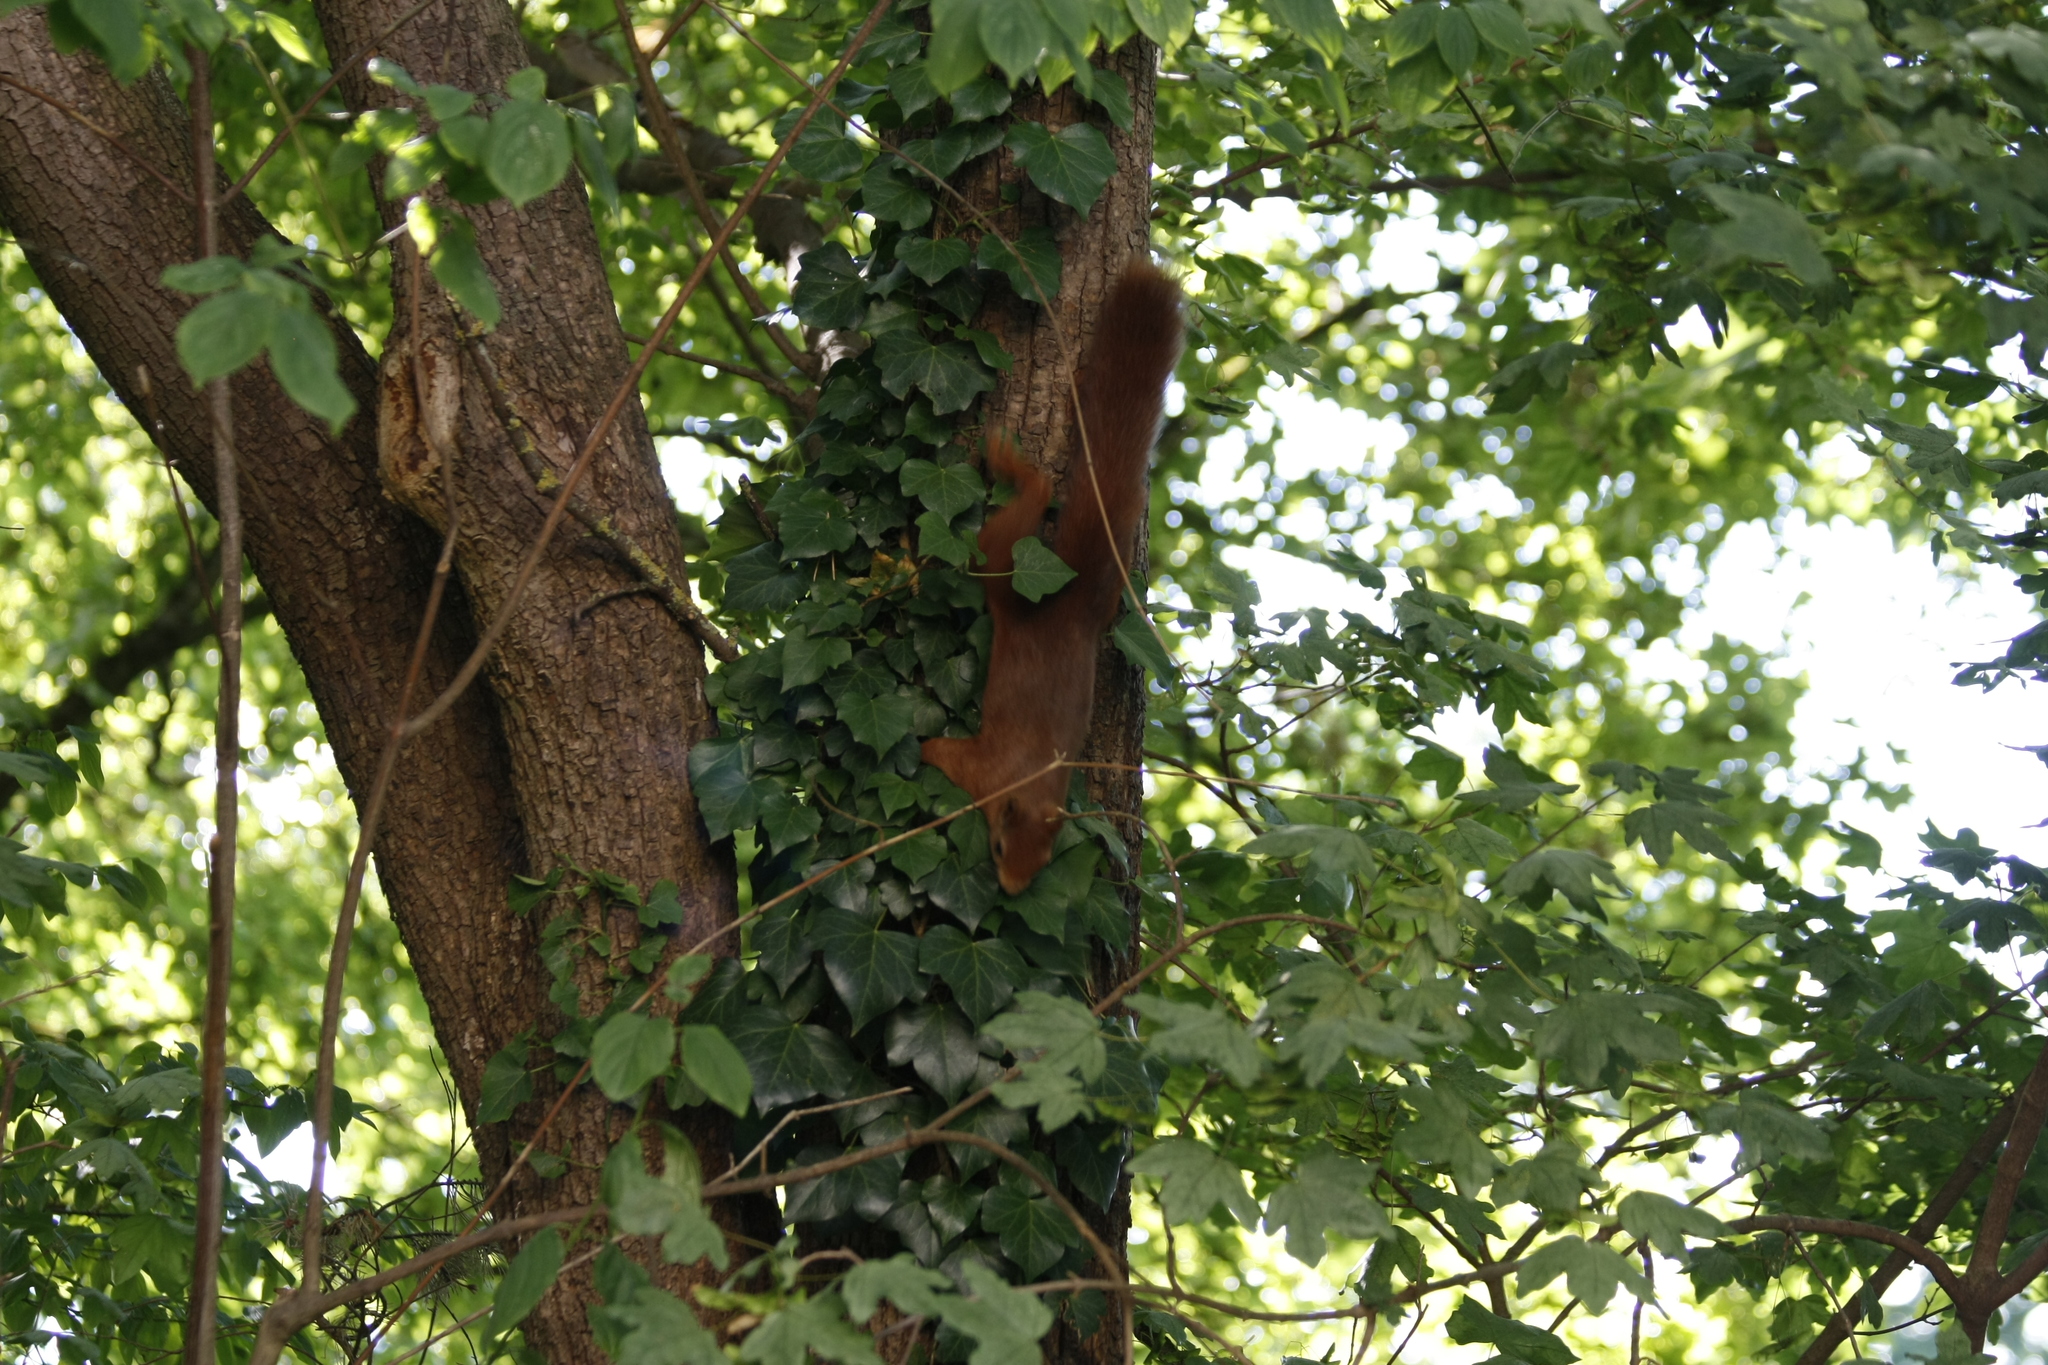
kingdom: Animalia
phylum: Chordata
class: Mammalia
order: Rodentia
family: Sciuridae
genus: Sciurus
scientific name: Sciurus vulgaris
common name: Eurasian red squirrel
